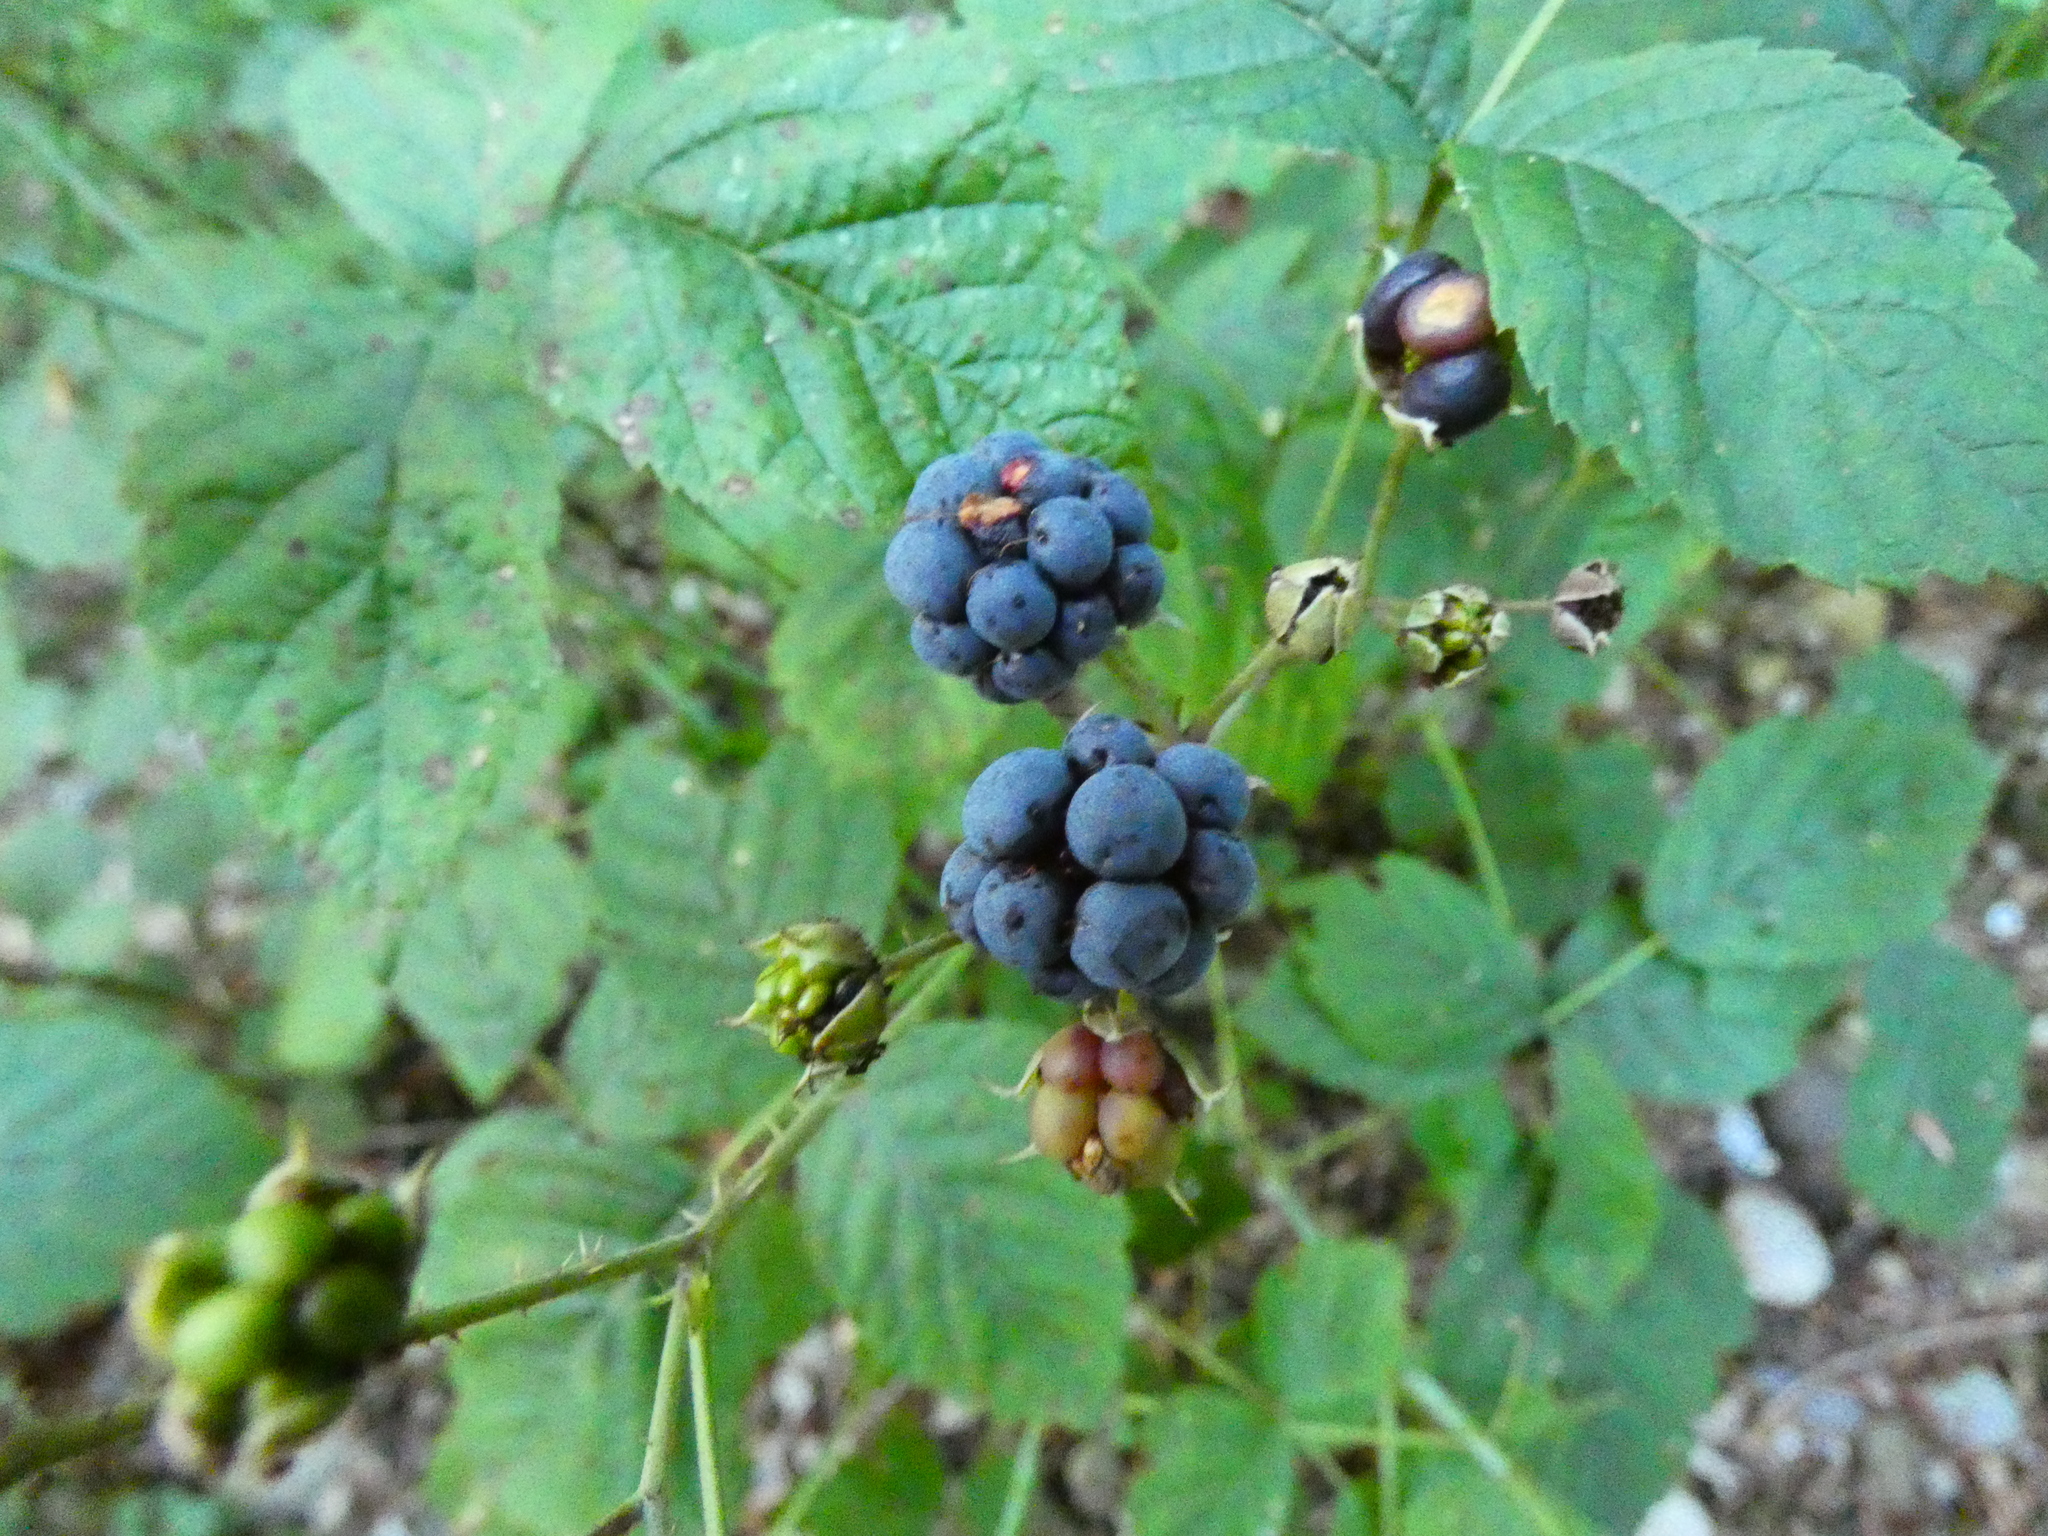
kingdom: Plantae
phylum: Tracheophyta
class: Magnoliopsida
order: Rosales
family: Rosaceae
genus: Rubus
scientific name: Rubus caesius
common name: Dewberry
